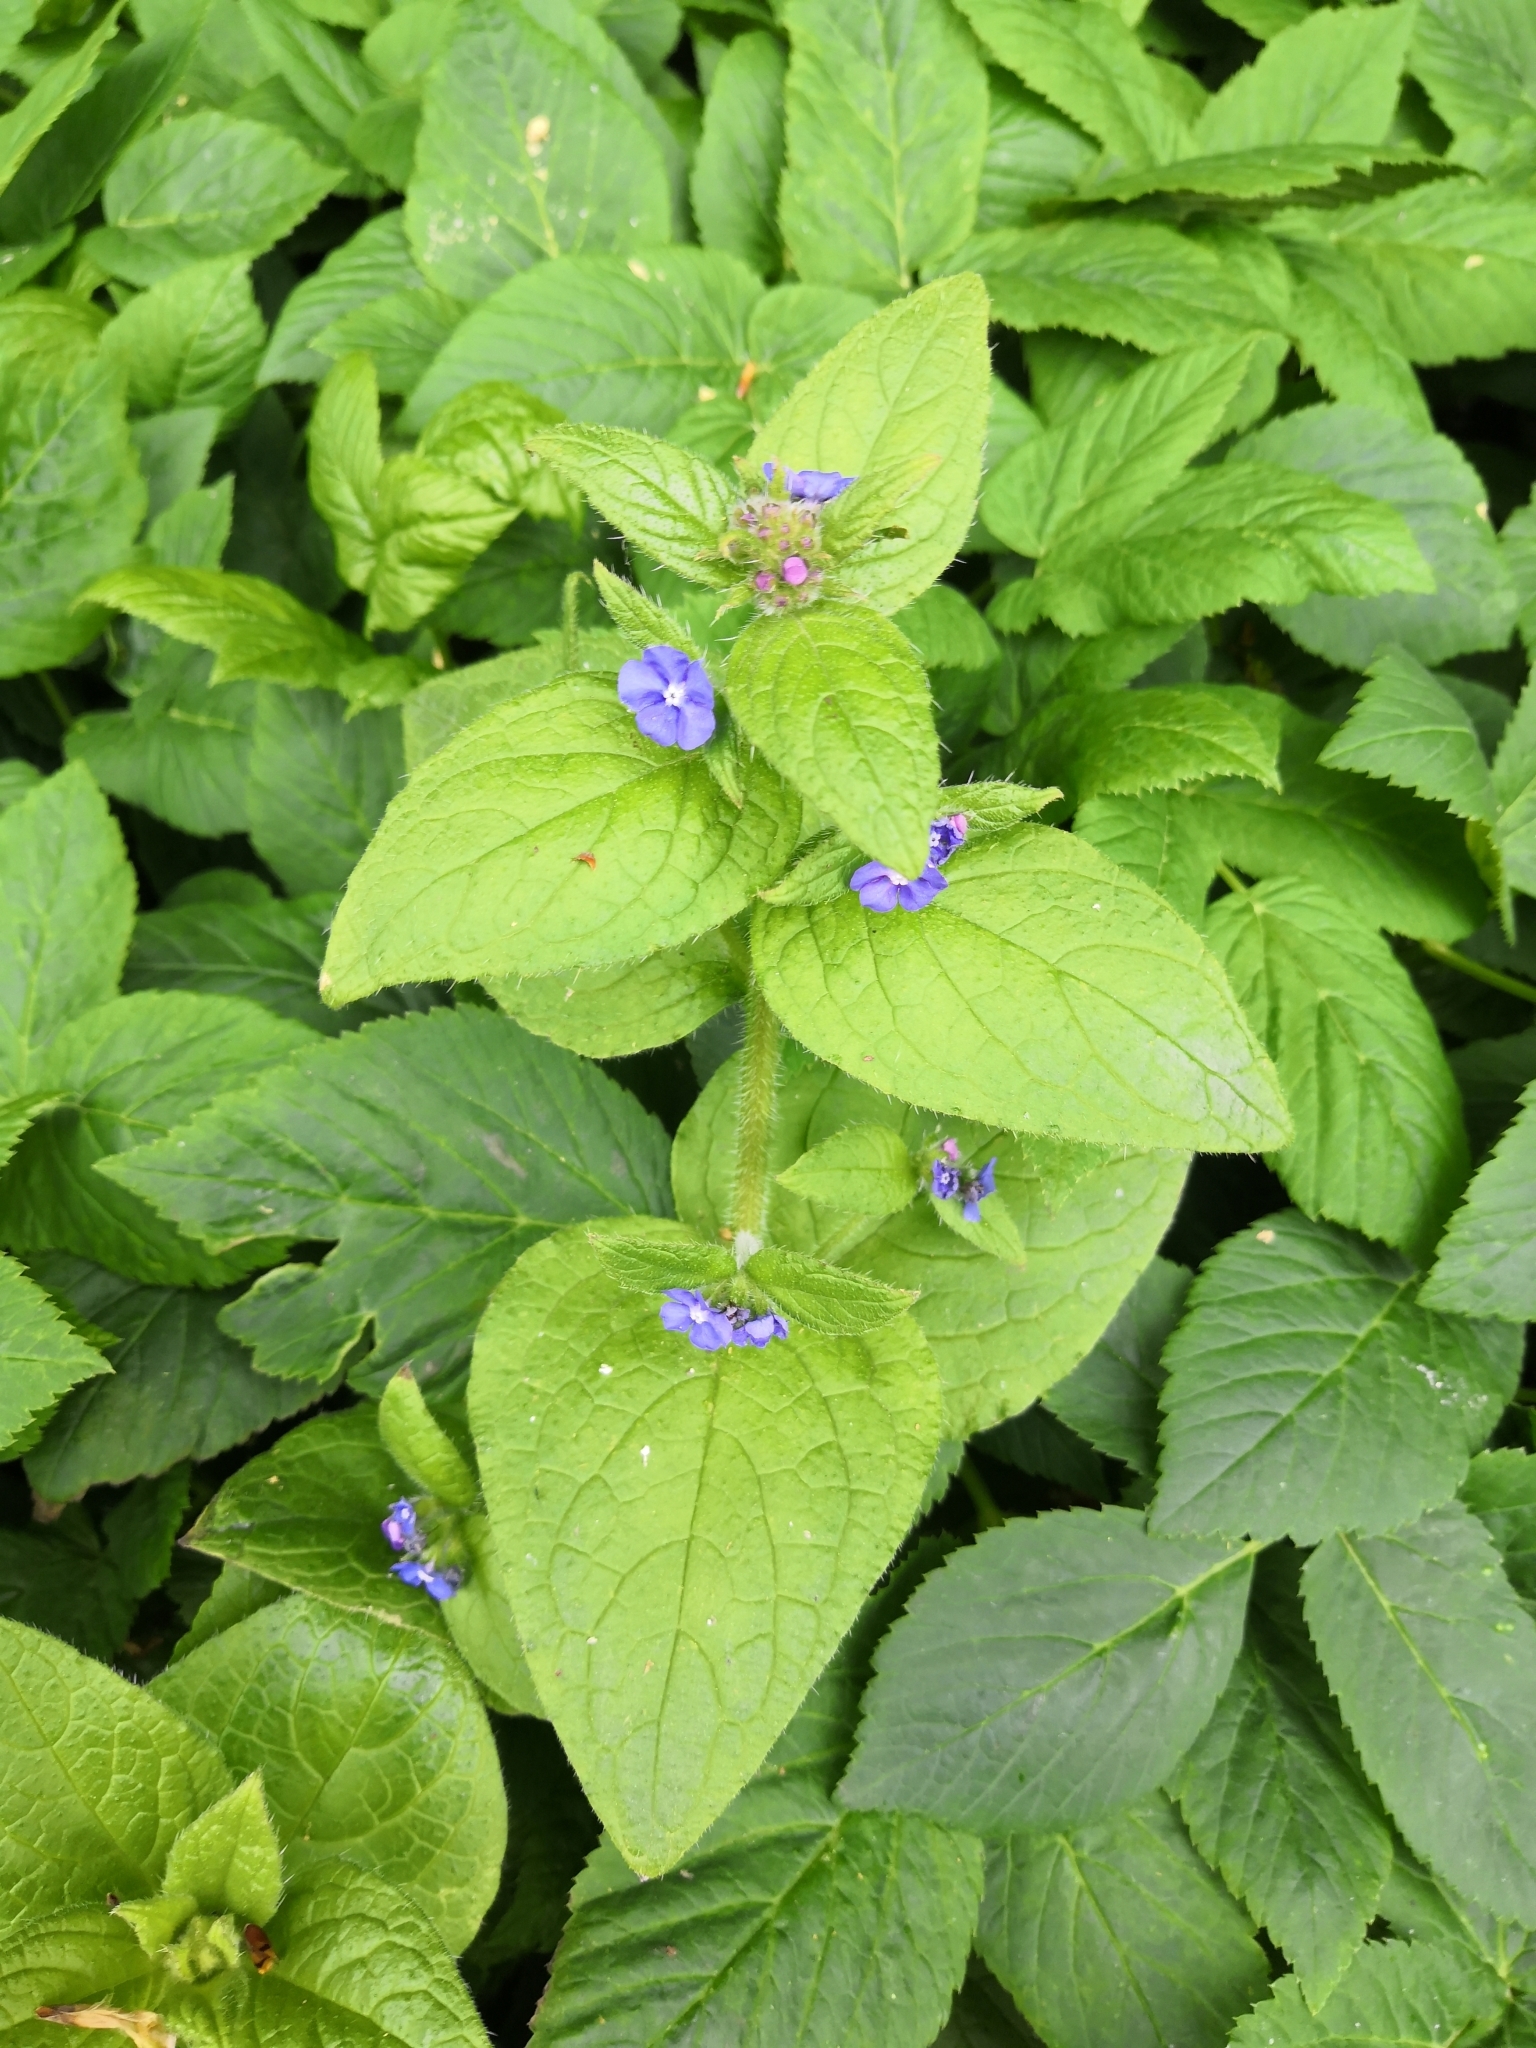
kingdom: Plantae
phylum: Tracheophyta
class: Magnoliopsida
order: Boraginales
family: Boraginaceae
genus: Pentaglottis
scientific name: Pentaglottis sempervirens
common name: Green alkanet
